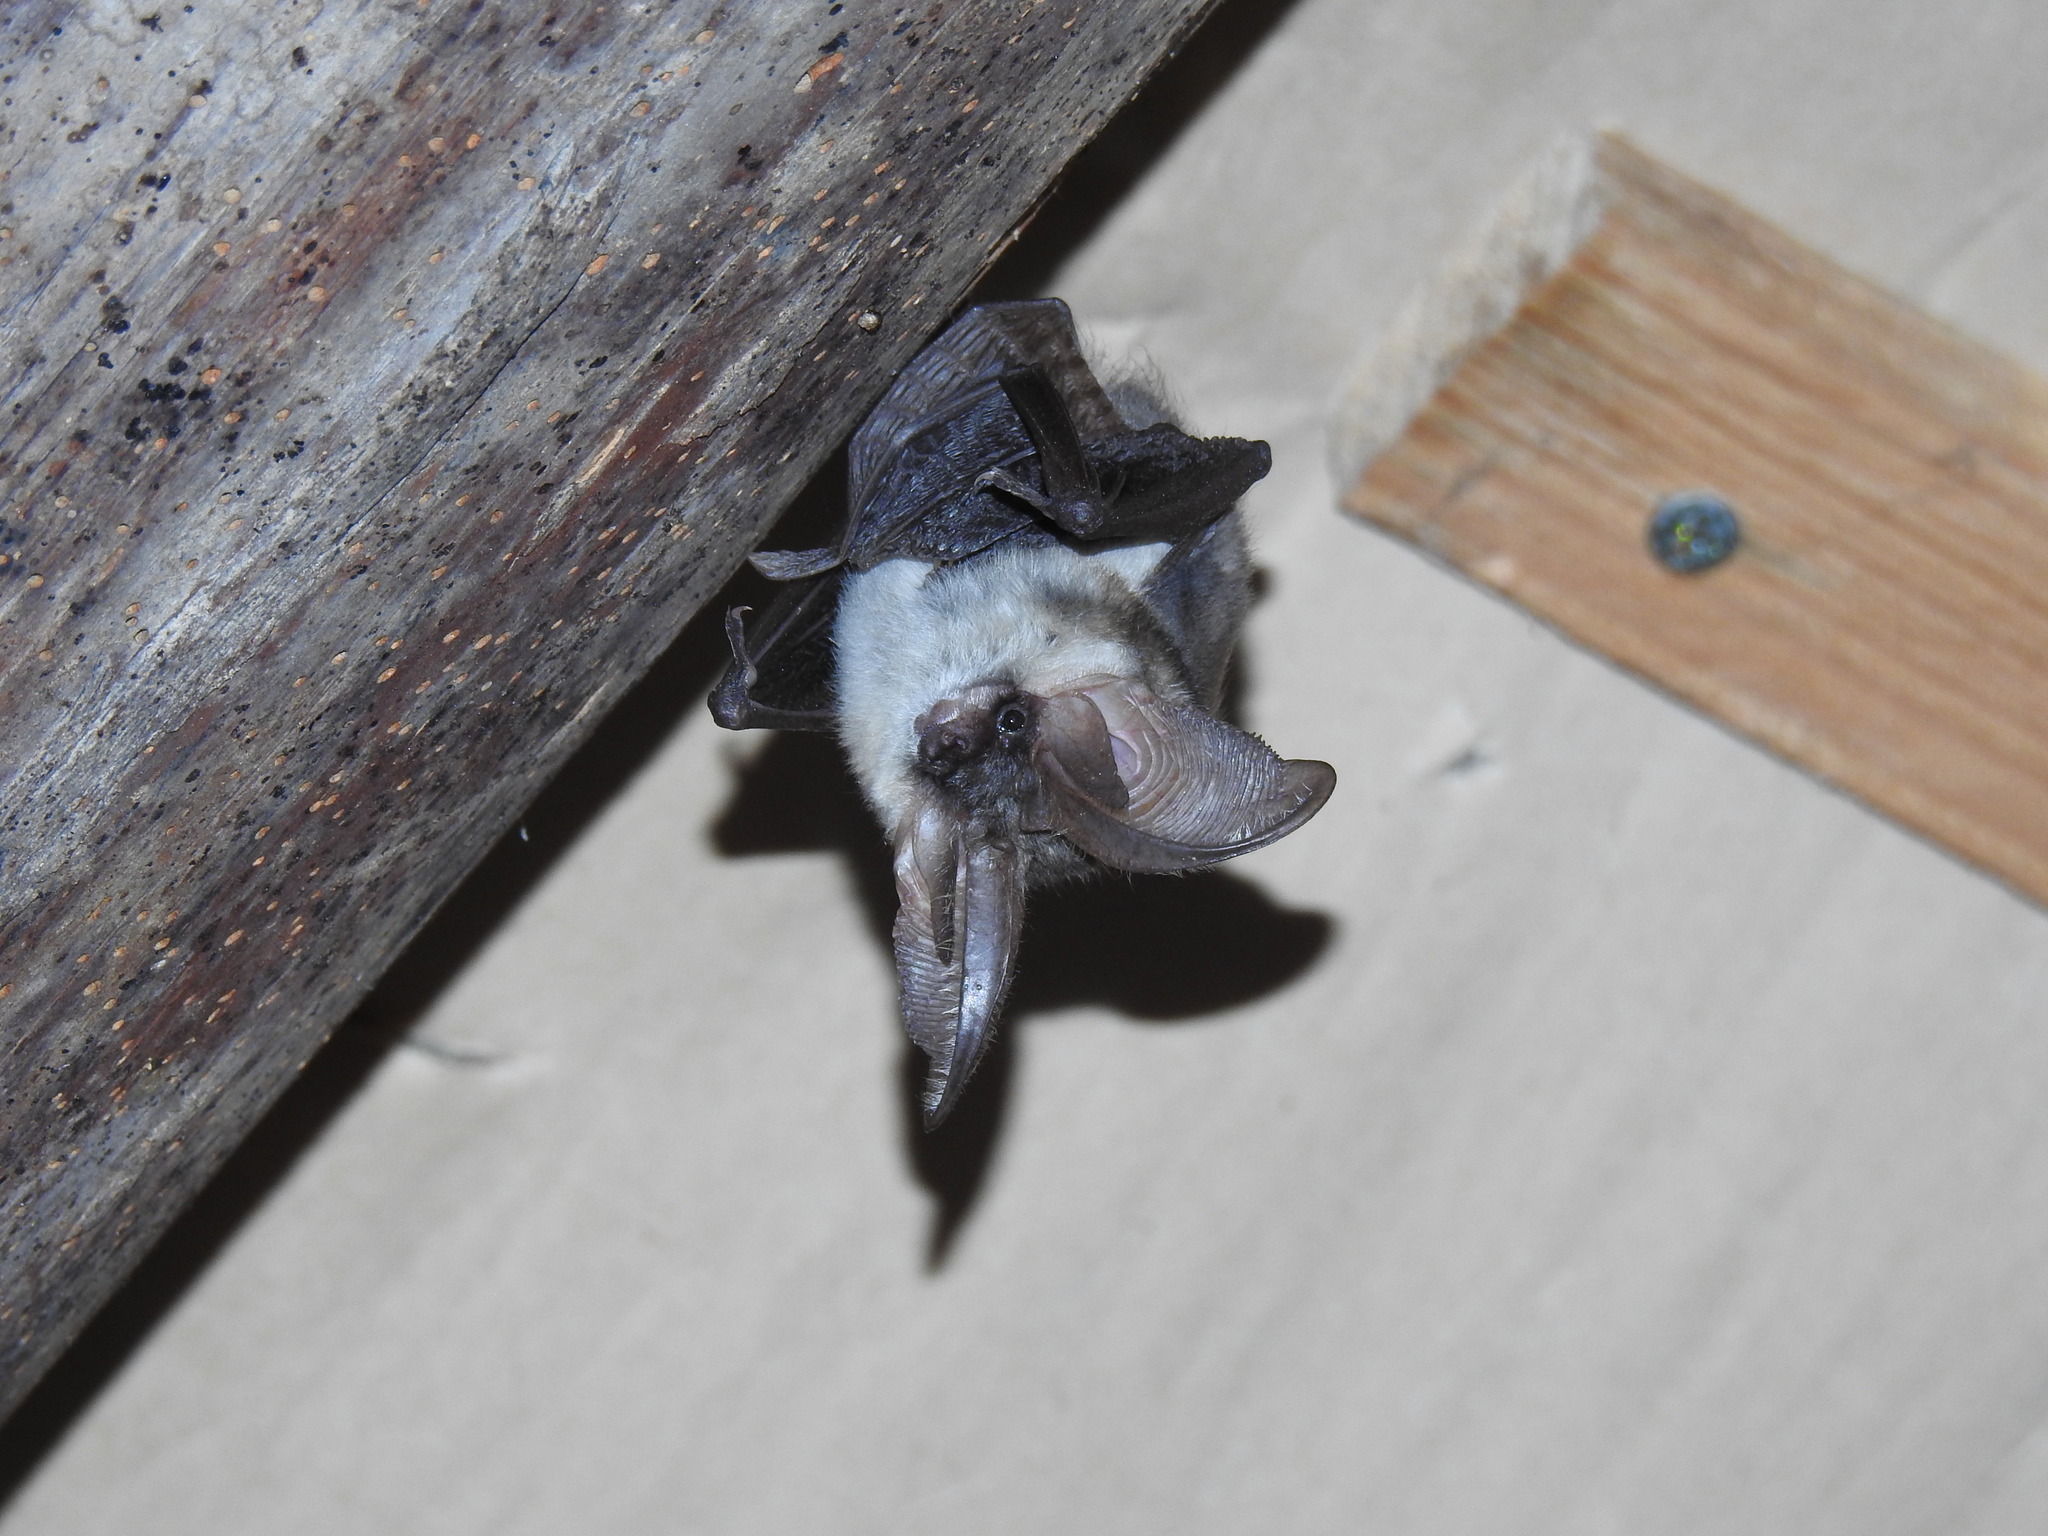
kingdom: Animalia
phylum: Chordata
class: Mammalia
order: Chiroptera
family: Vespertilionidae
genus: Plecotus
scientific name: Plecotus austriacus
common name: Grey long-eared bat
